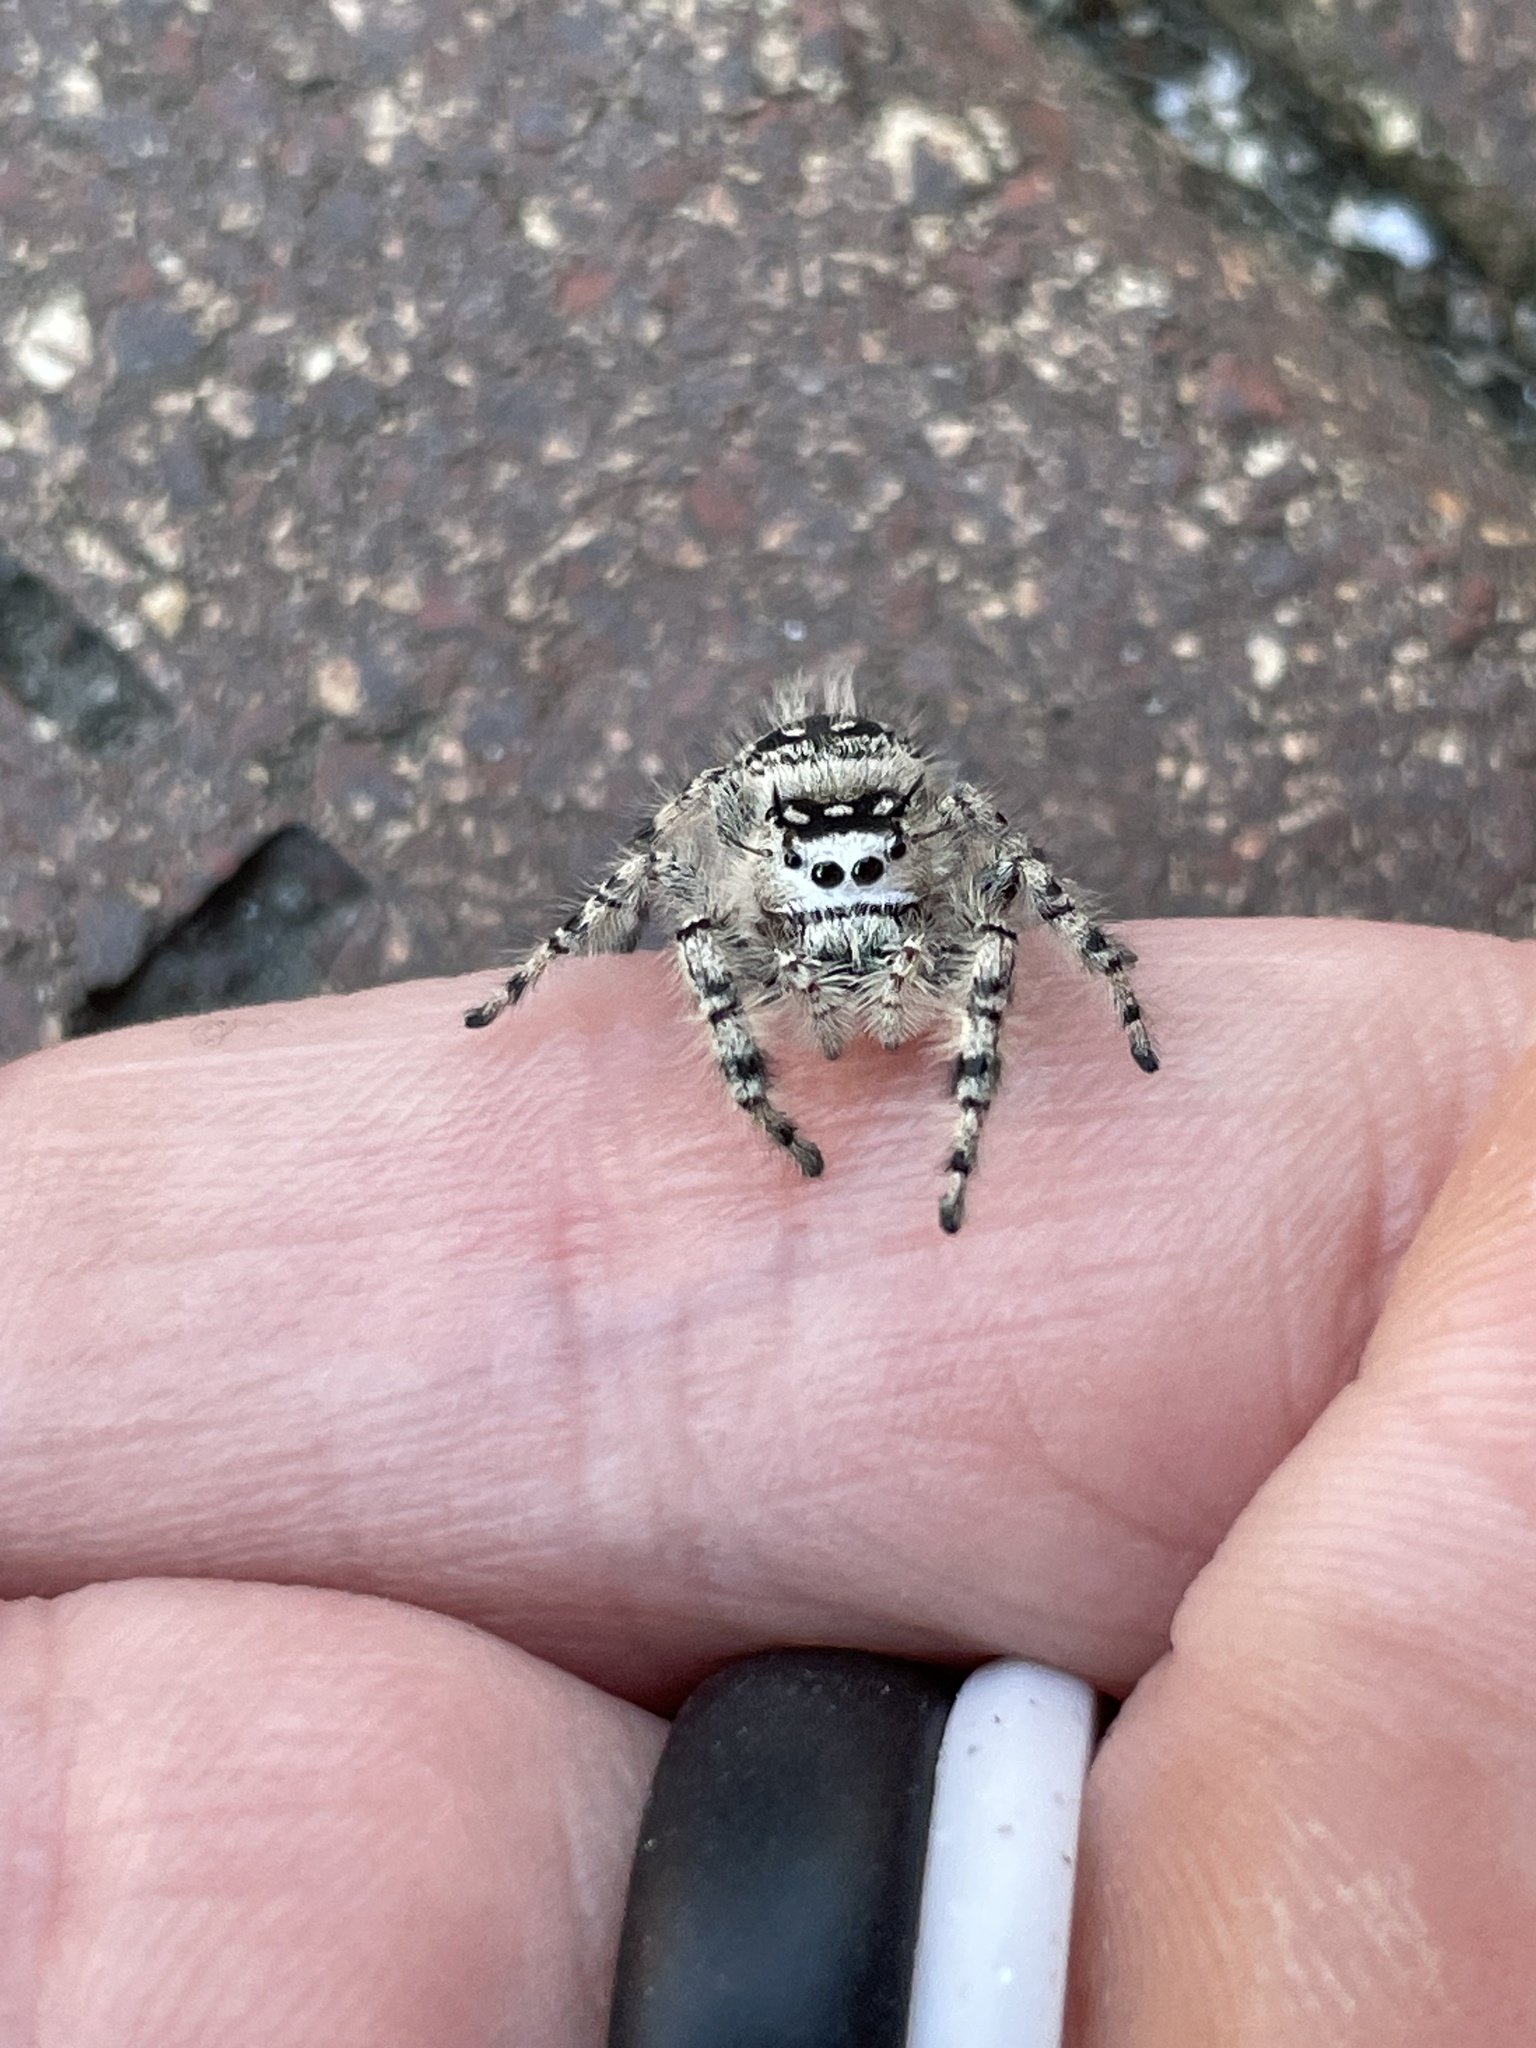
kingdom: Animalia
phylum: Arthropoda
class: Arachnida
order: Araneae
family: Salticidae
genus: Phidippus
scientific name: Phidippus otiosus
